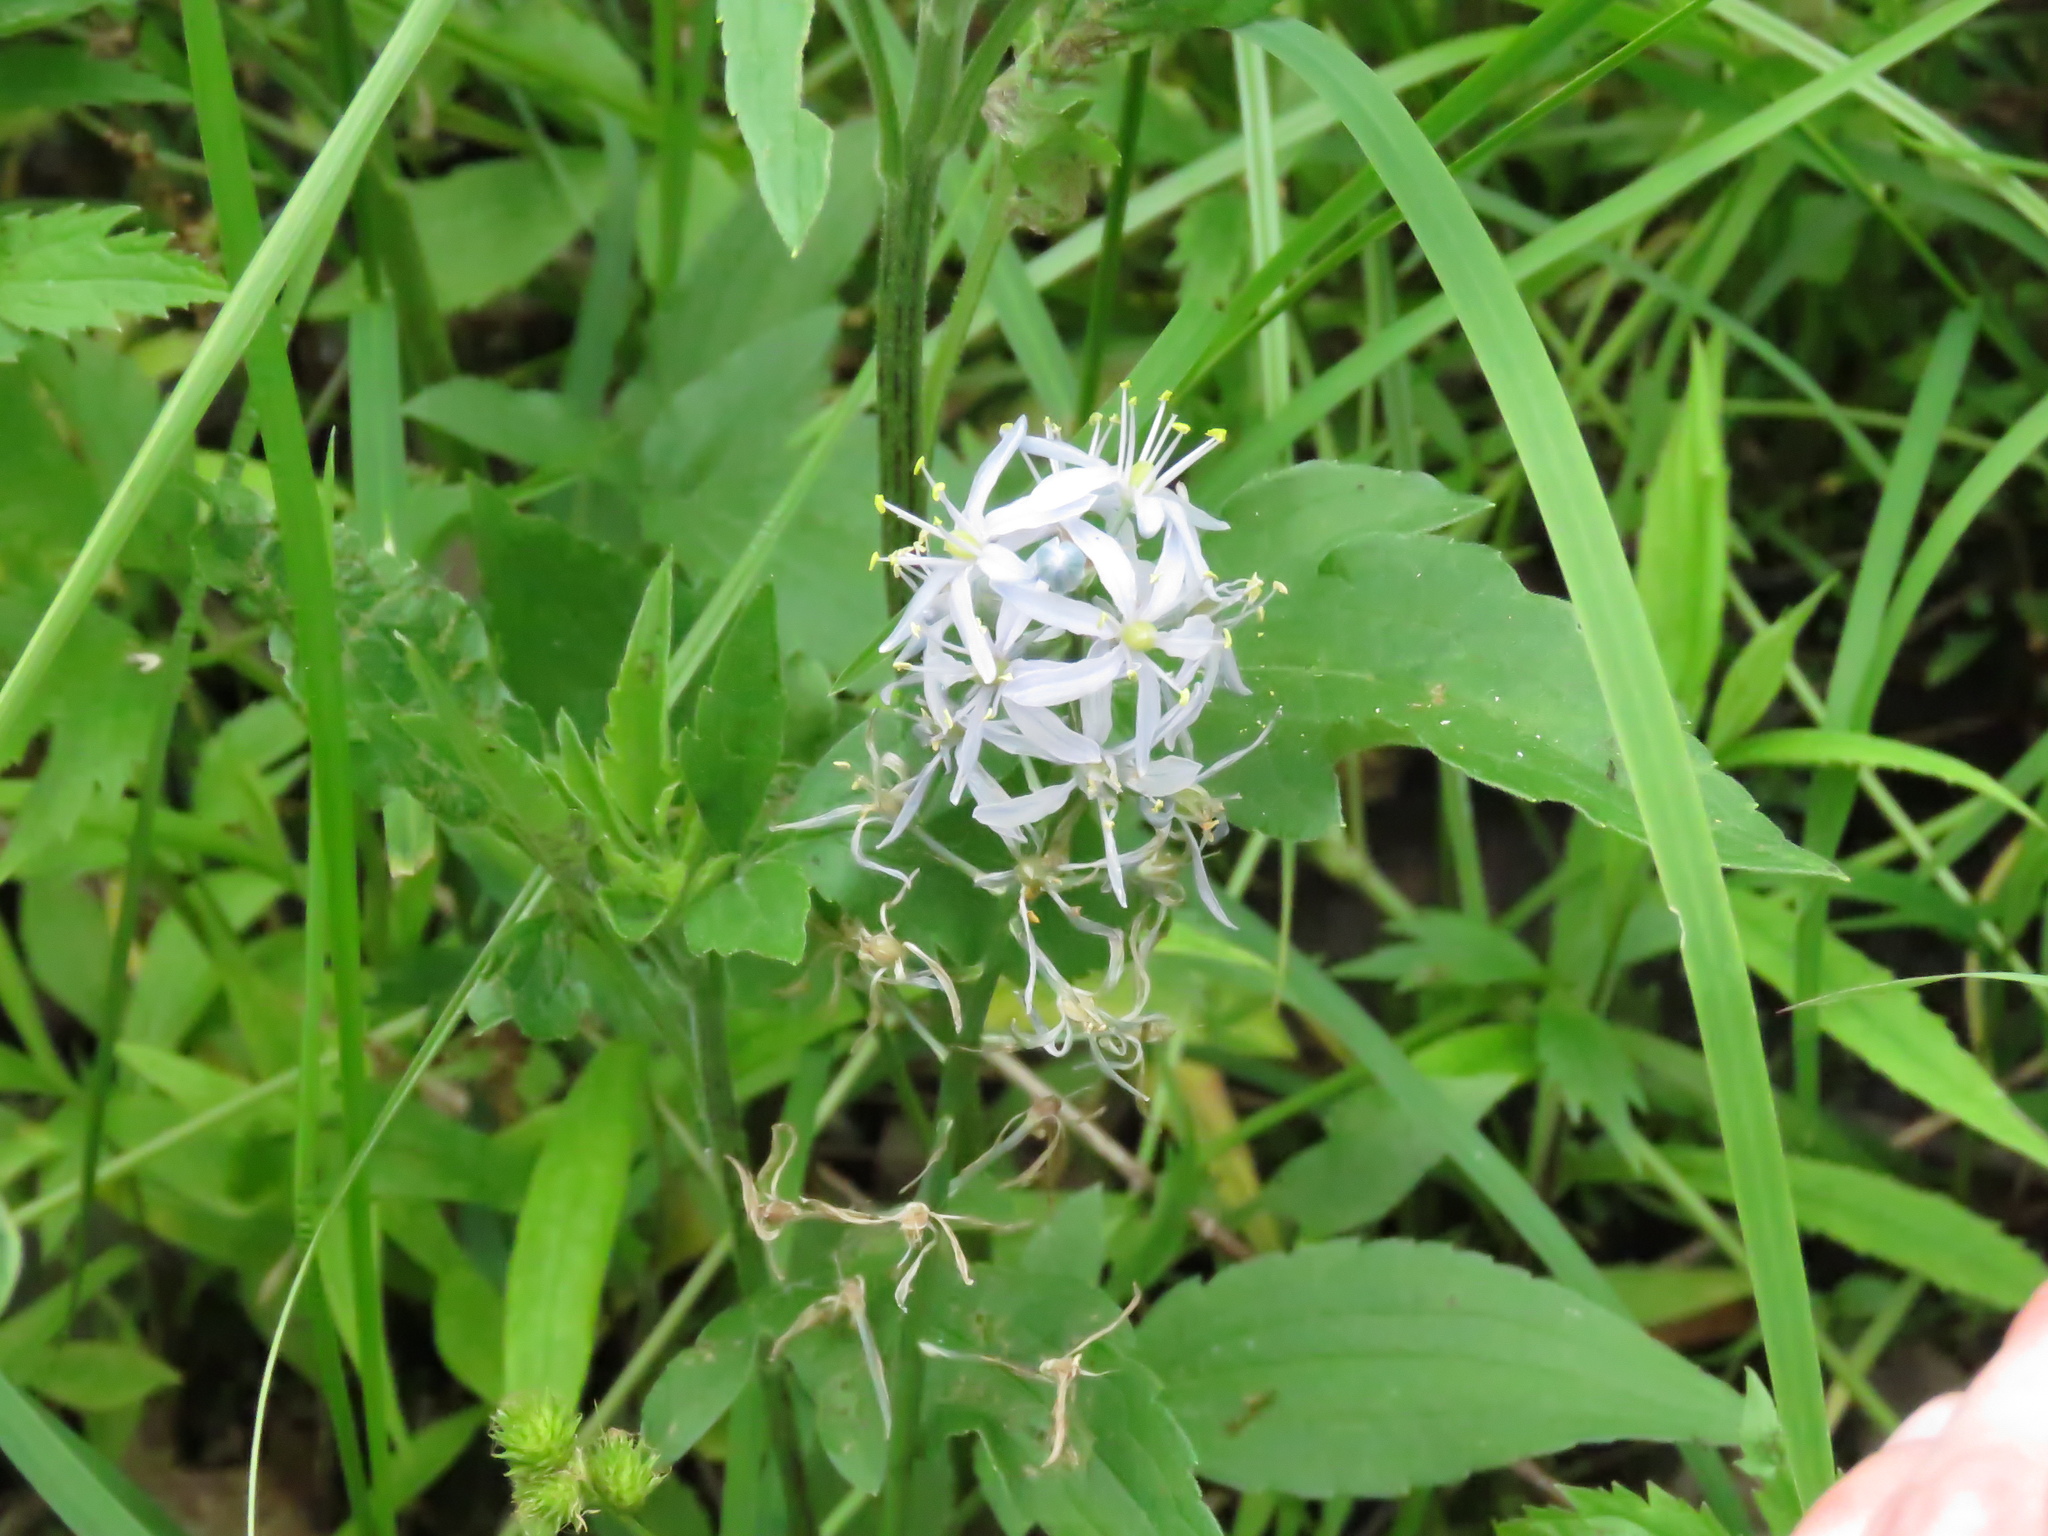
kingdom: Plantae
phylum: Tracheophyta
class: Liliopsida
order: Asparagales
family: Asparagaceae
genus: Camassia
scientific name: Camassia scilloides
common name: Wild hyacinth
